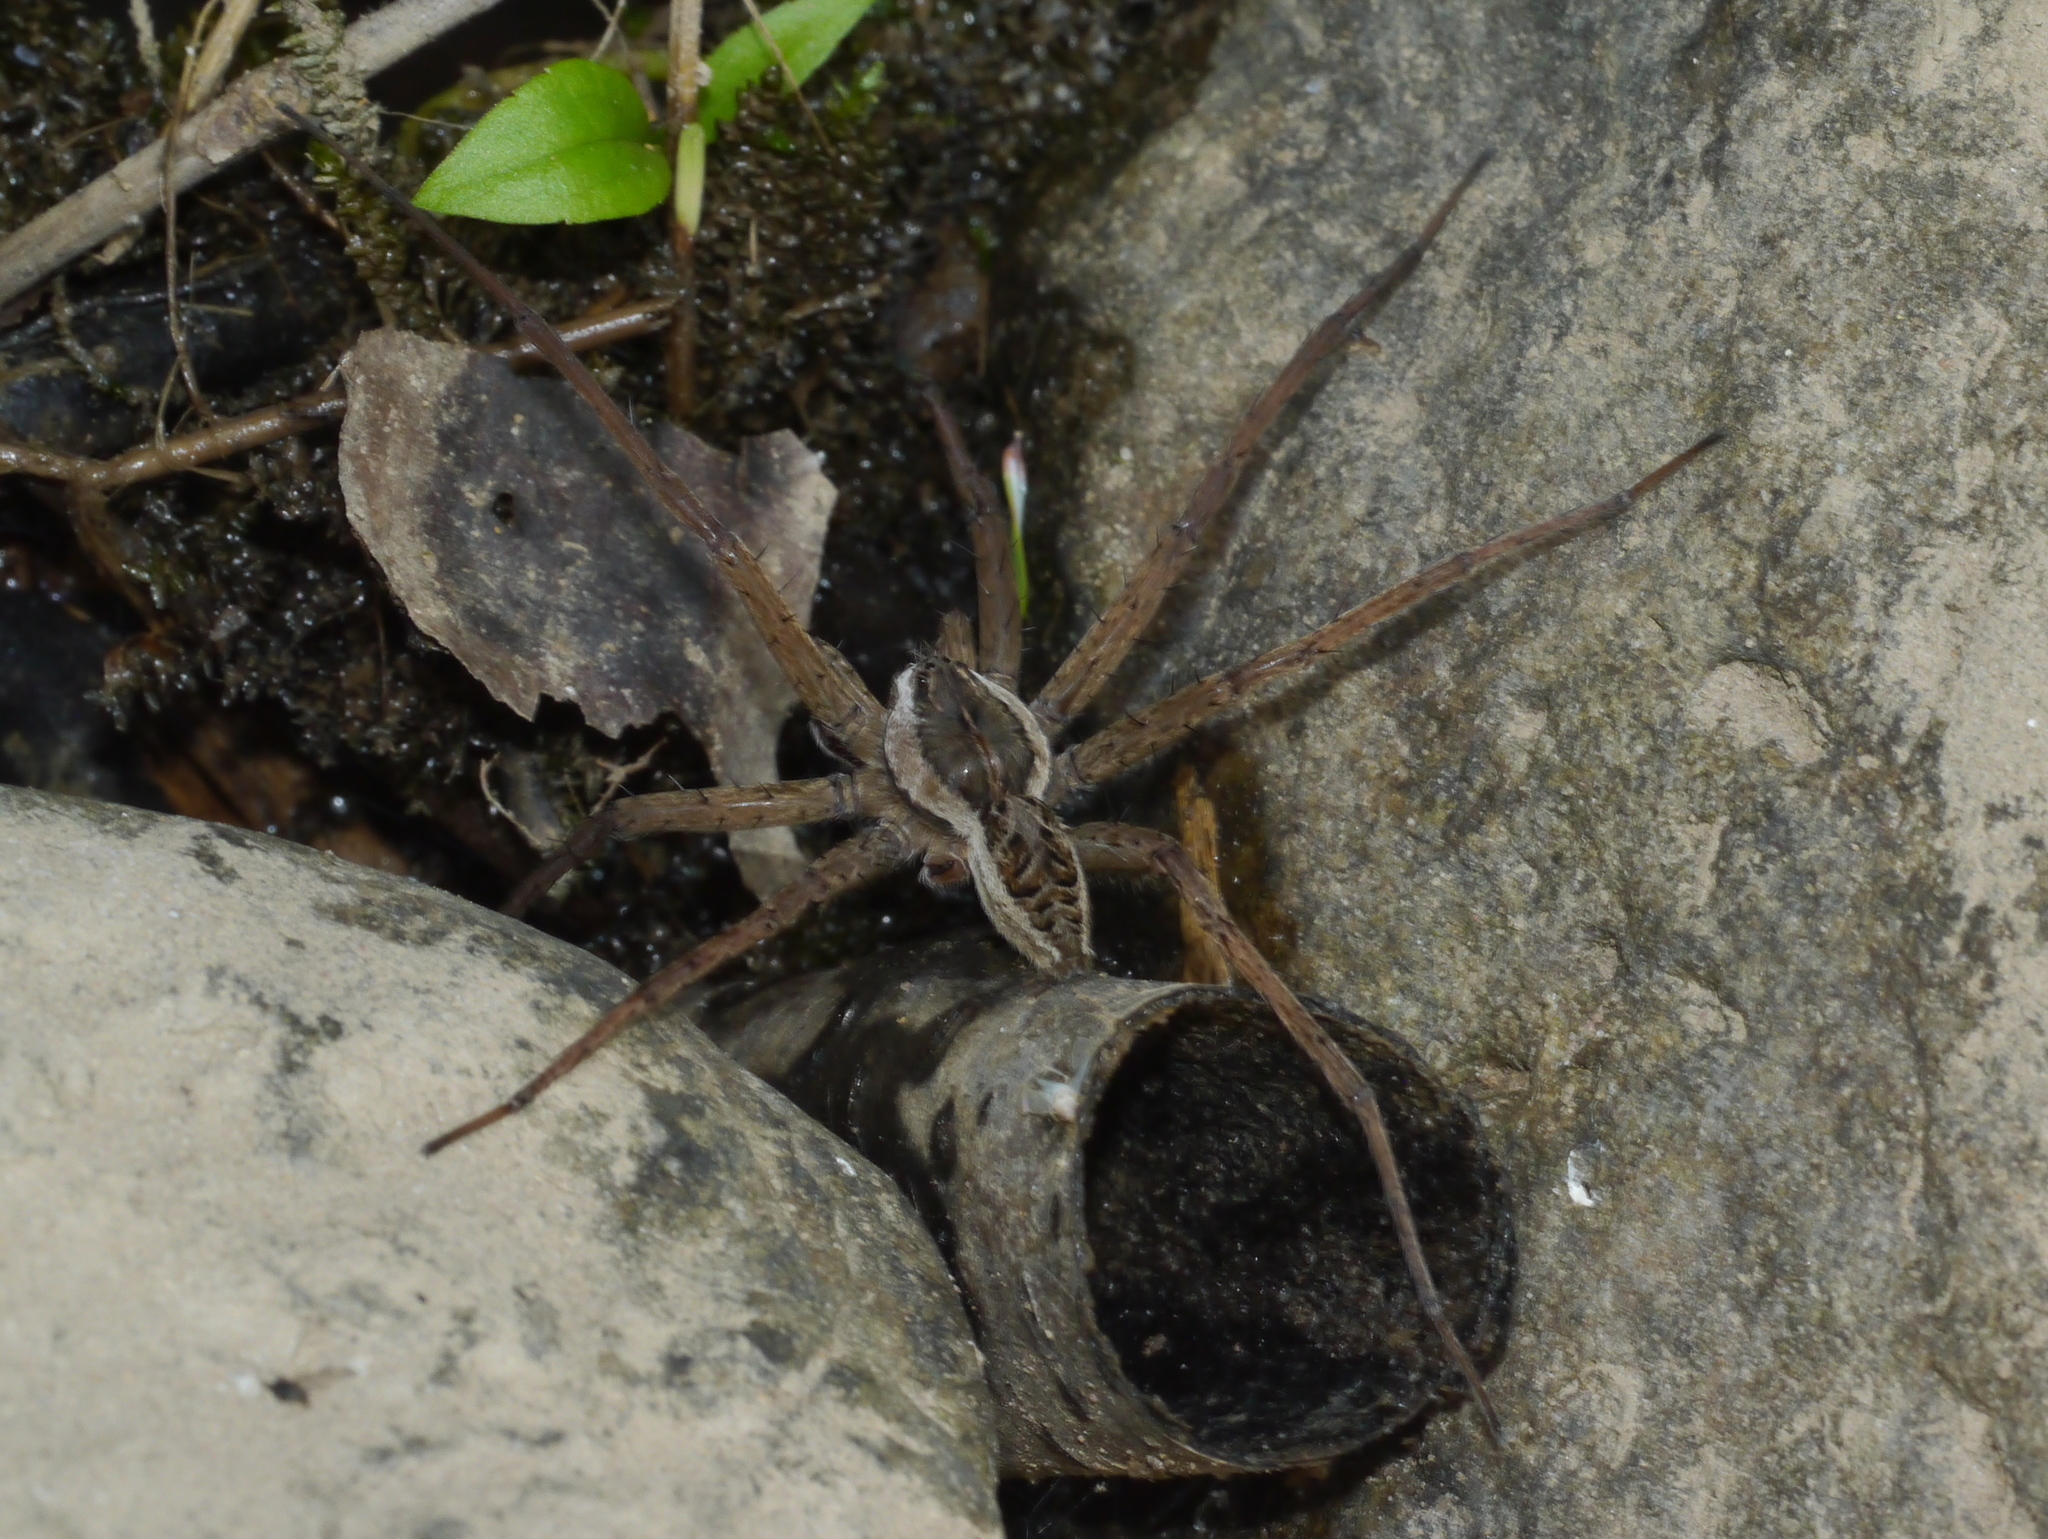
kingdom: Animalia
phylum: Arthropoda
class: Arachnida
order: Araneae
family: Pisauridae
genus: Dolomedes
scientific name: Dolomedes scriptus
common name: Striped fishing spider
